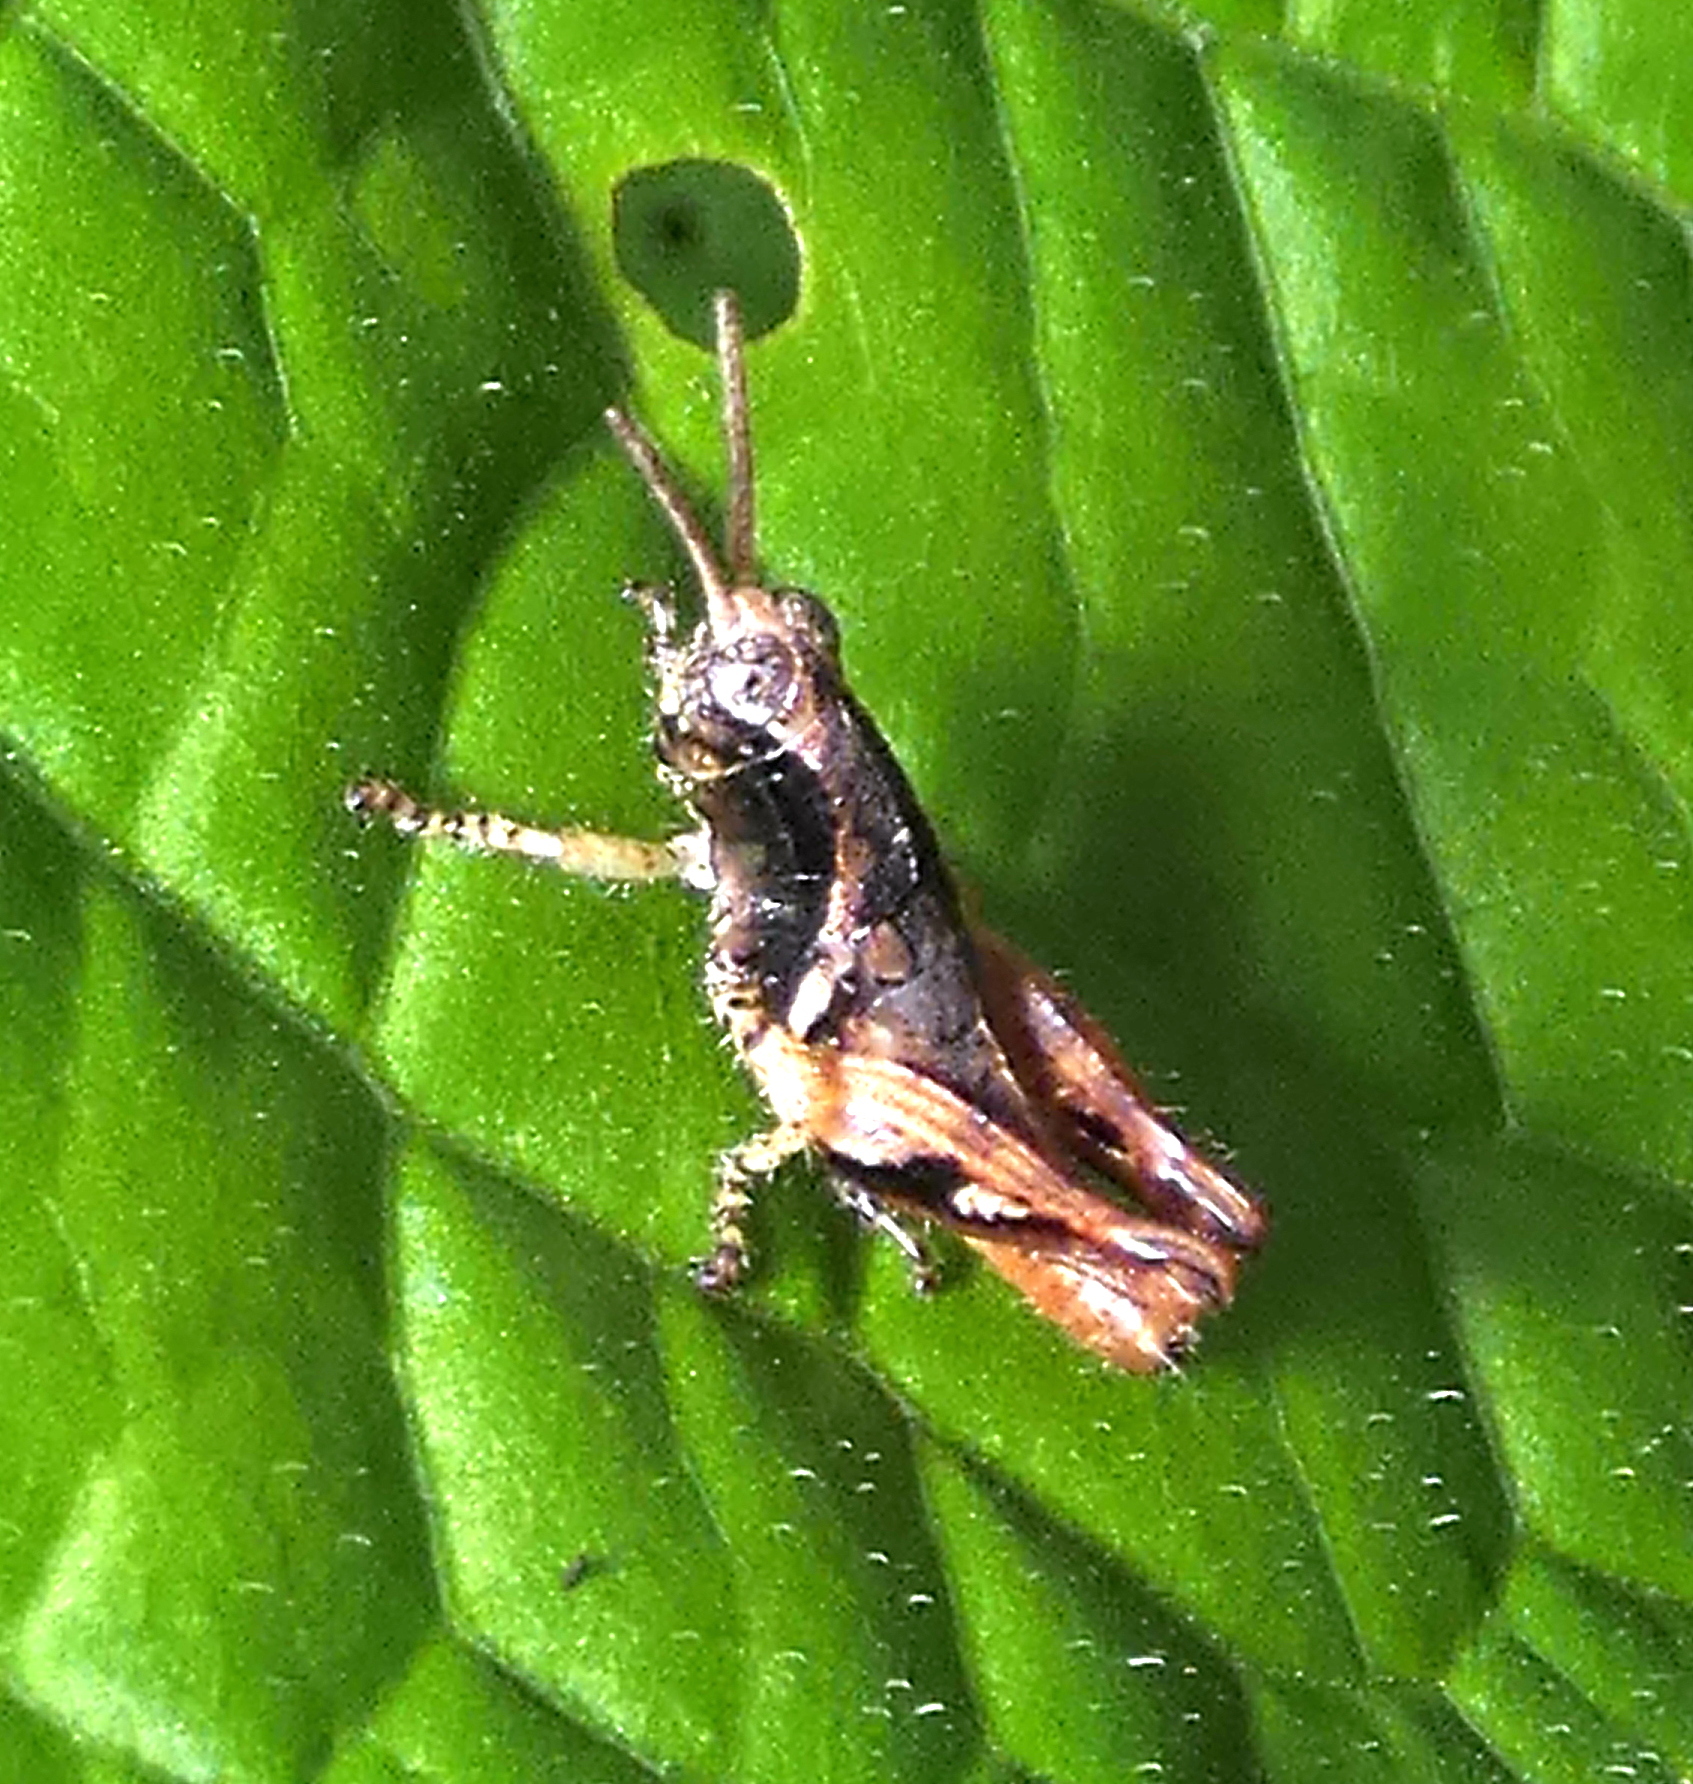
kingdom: Animalia
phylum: Arthropoda
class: Insecta
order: Orthoptera
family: Acrididae
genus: Eujivarus
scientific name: Eujivarus meridionalis
